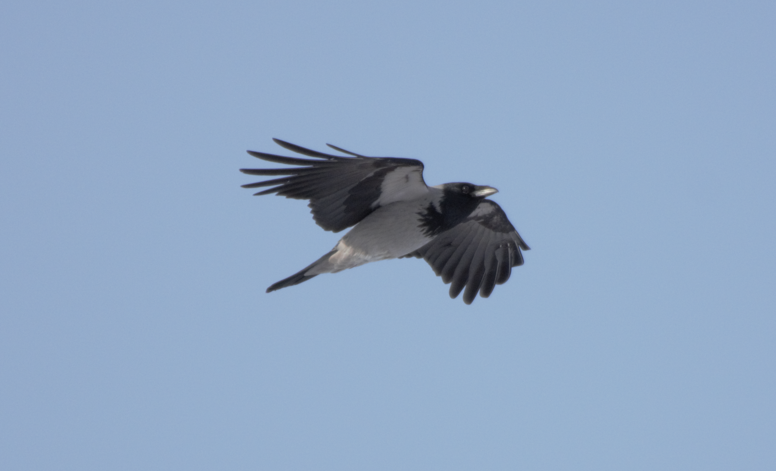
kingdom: Animalia
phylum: Chordata
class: Aves
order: Passeriformes
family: Corvidae
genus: Corvus
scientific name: Corvus cornix
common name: Hooded crow
